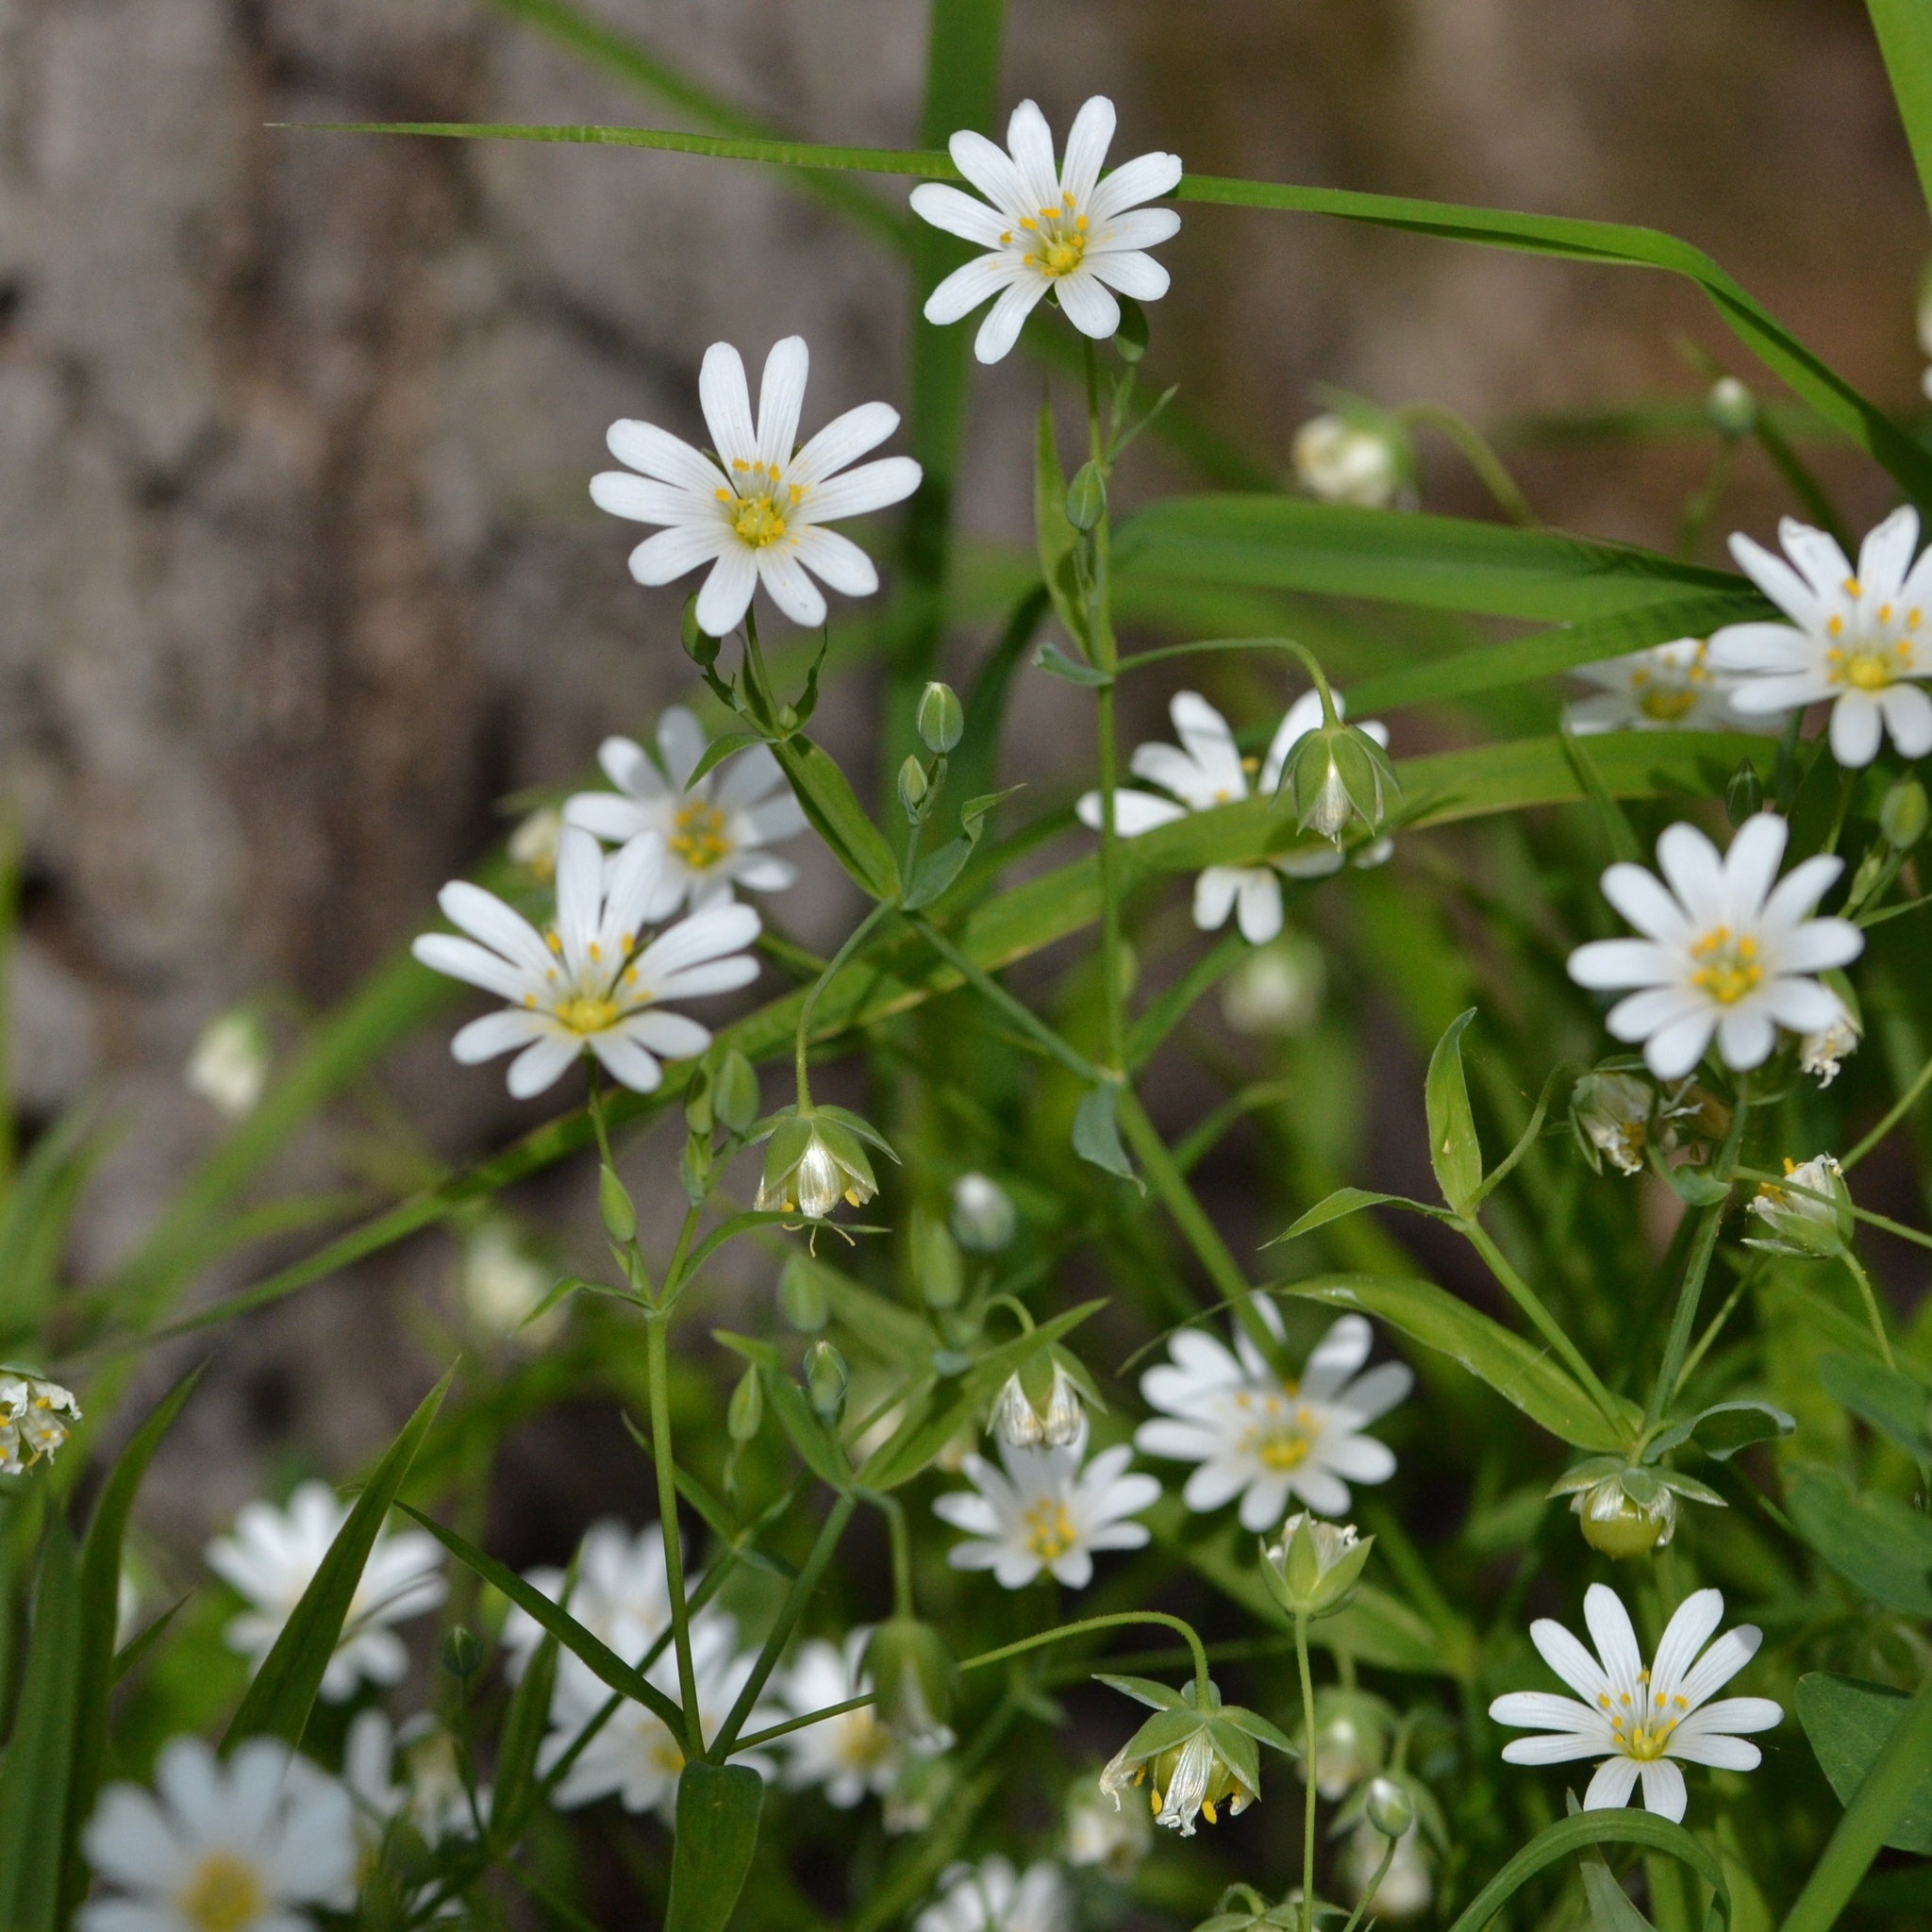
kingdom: Plantae
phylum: Tracheophyta
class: Magnoliopsida
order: Caryophyllales
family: Caryophyllaceae
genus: Rabelera
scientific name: Rabelera holostea
